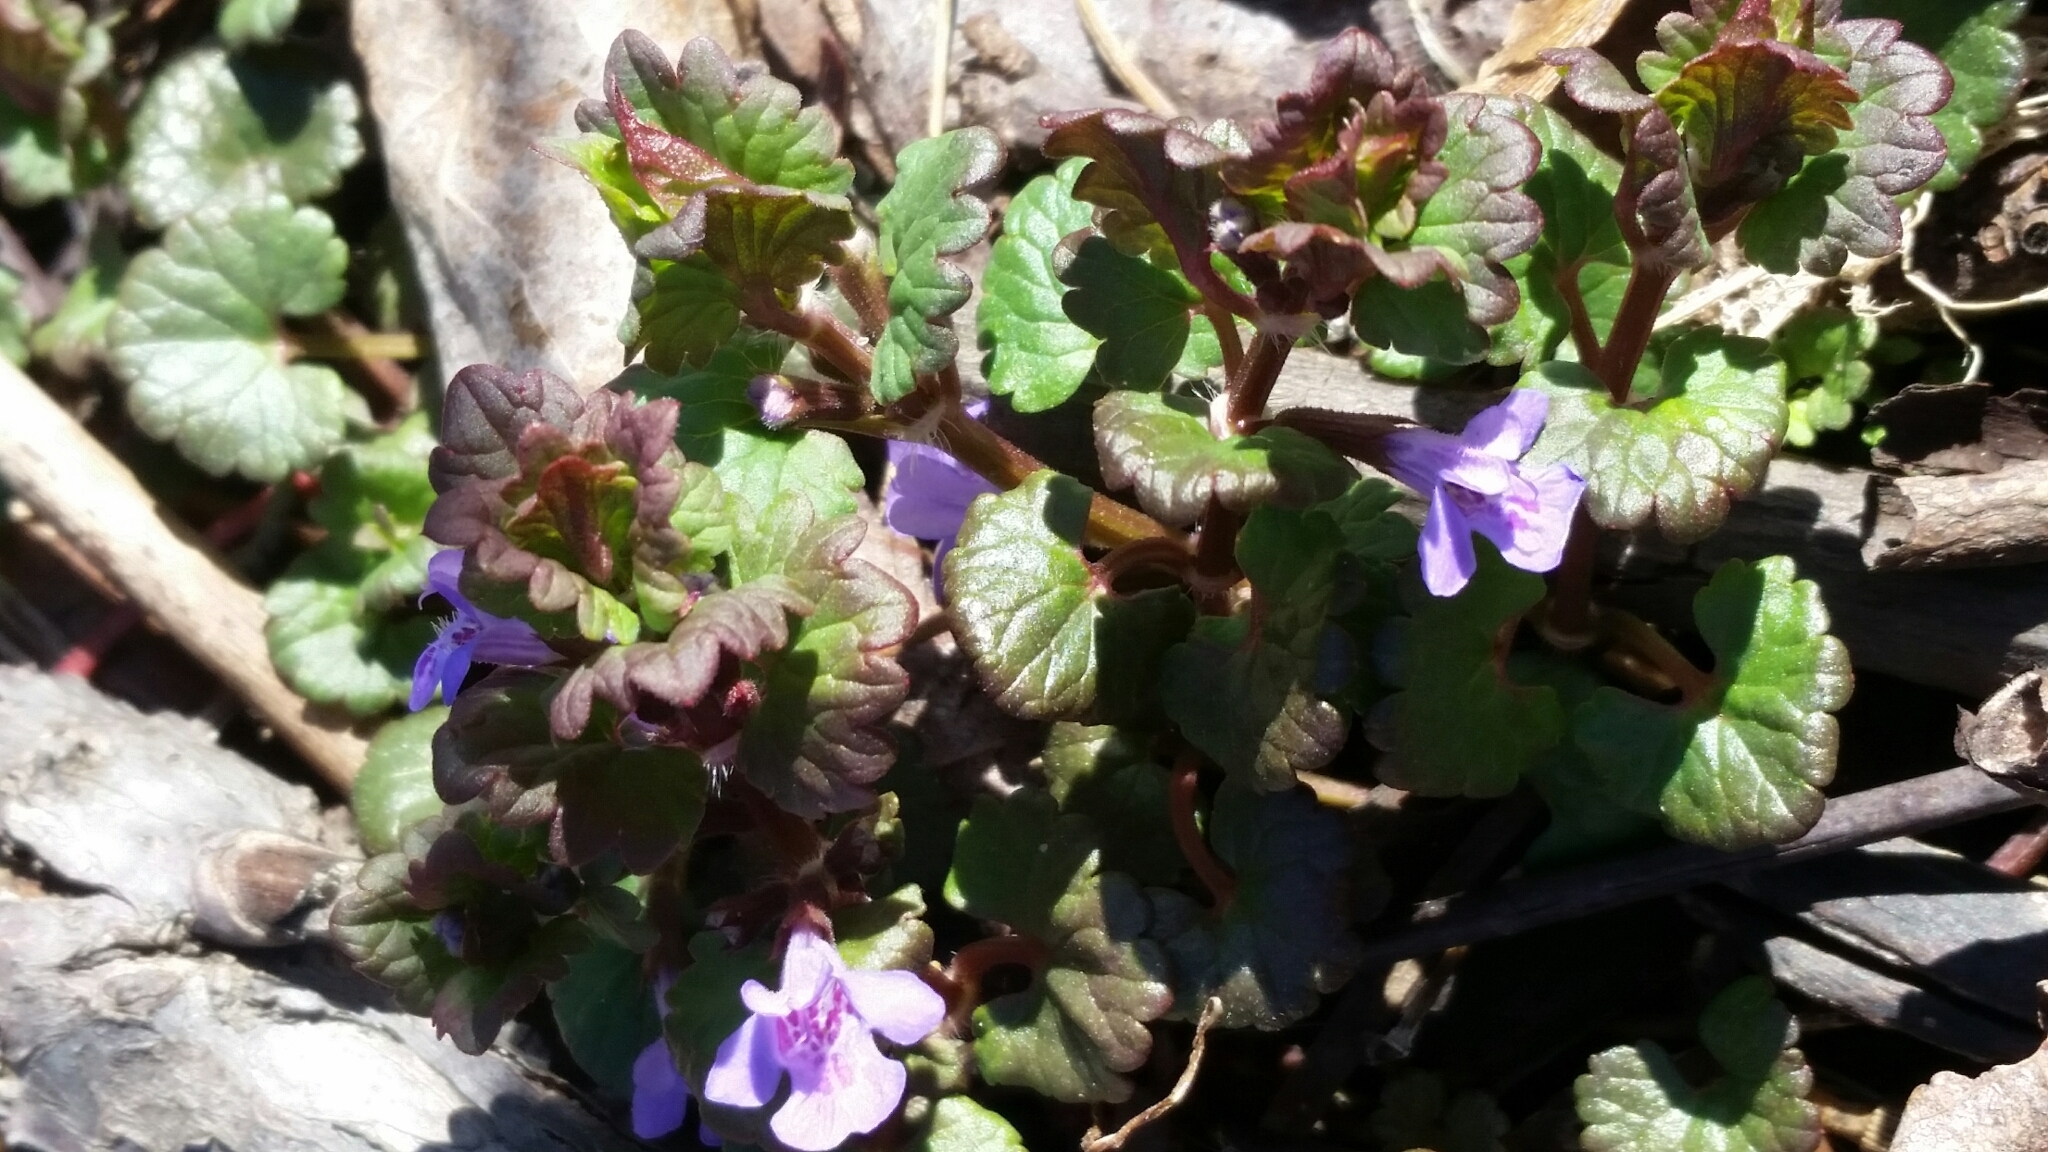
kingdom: Plantae
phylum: Tracheophyta
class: Magnoliopsida
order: Lamiales
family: Lamiaceae
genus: Glechoma
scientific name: Glechoma hederacea
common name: Ground ivy
